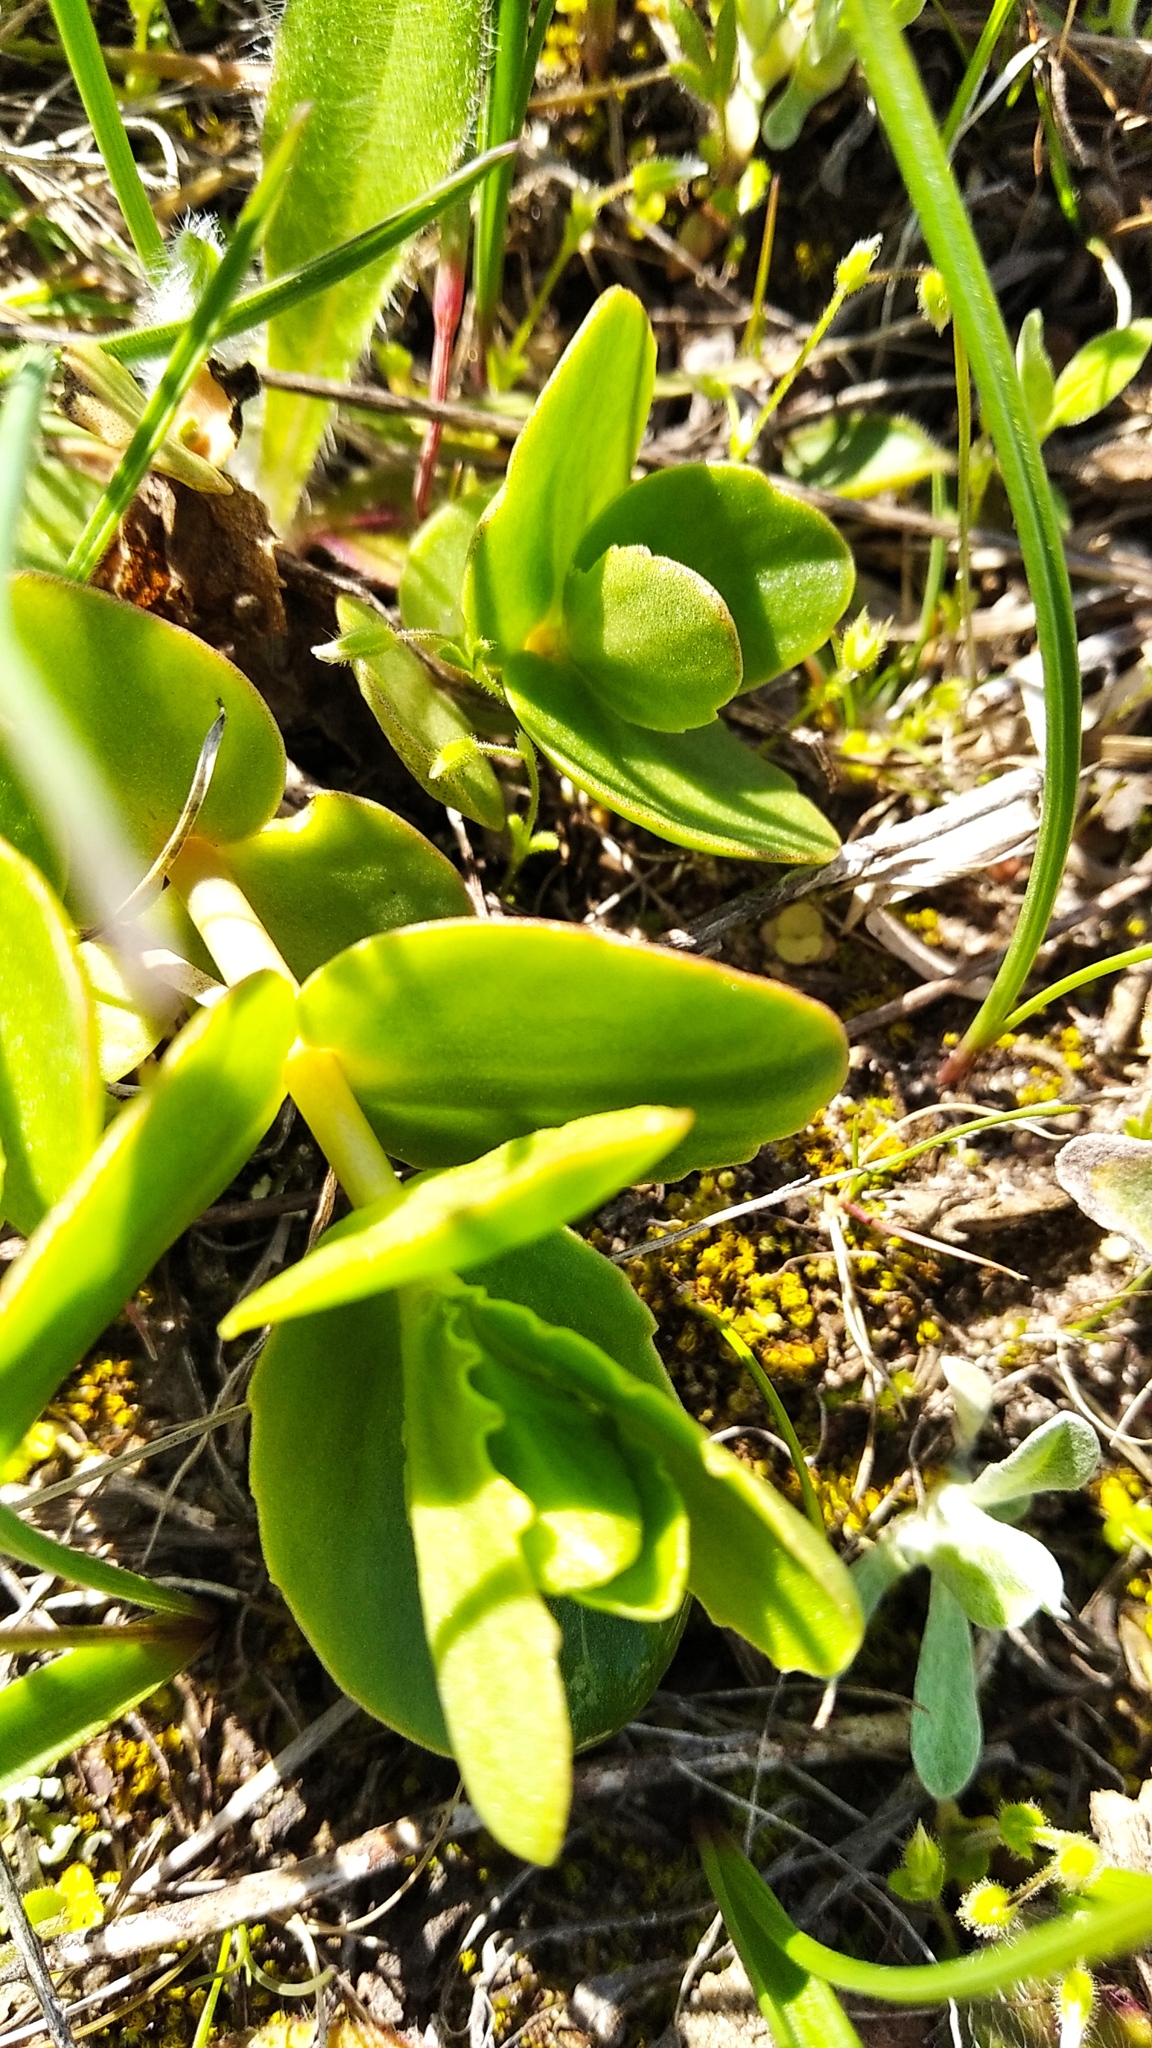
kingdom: Plantae
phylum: Tracheophyta
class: Magnoliopsida
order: Saxifragales
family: Crassulaceae
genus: Hylotelephium
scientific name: Hylotelephium maximum
